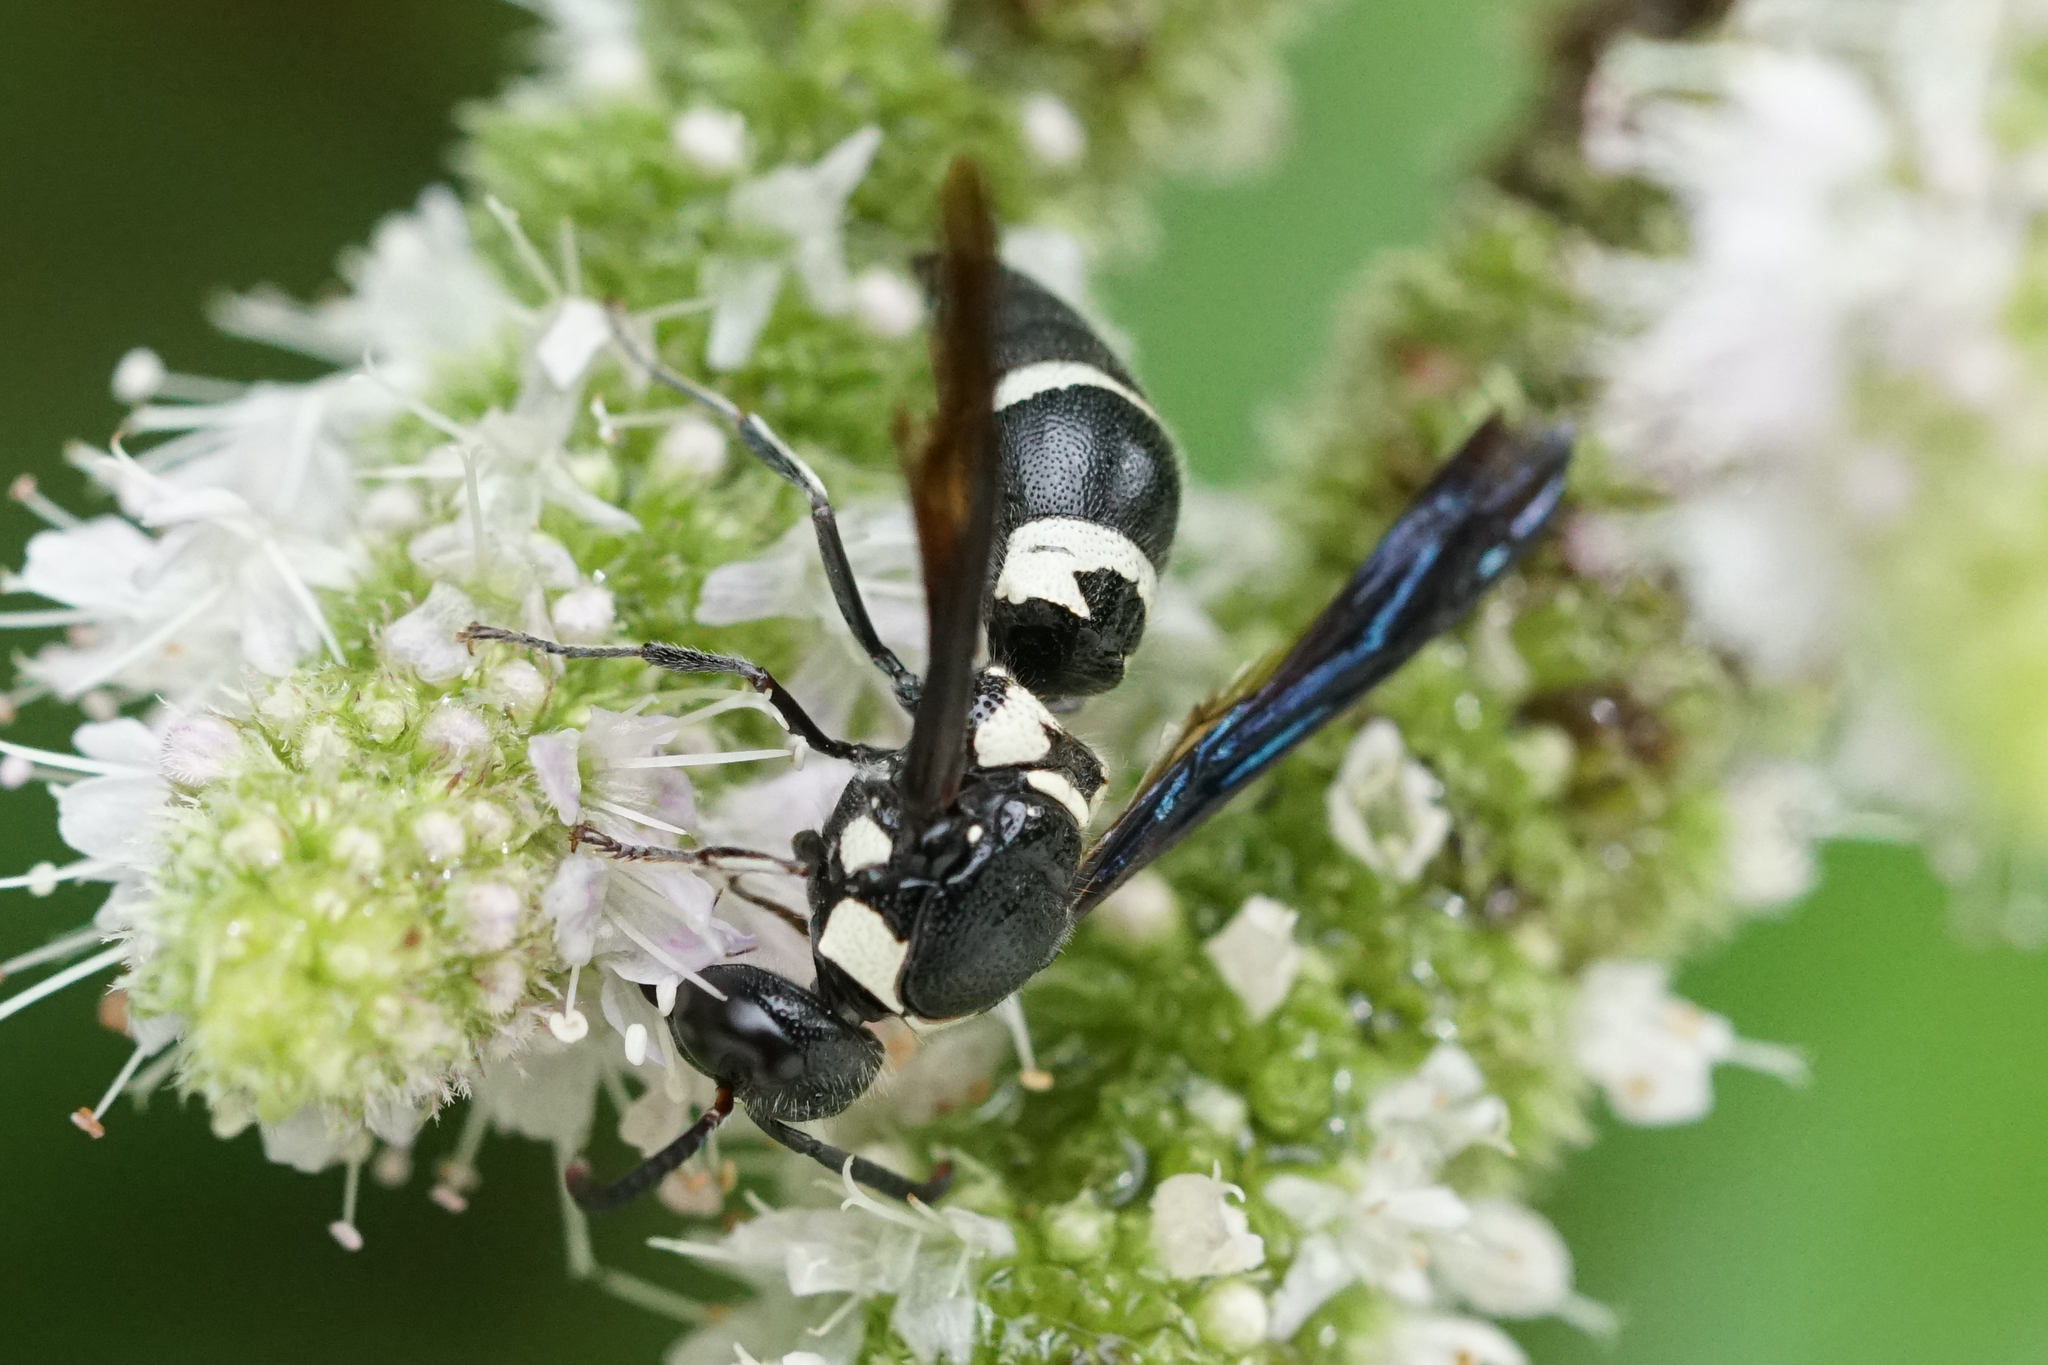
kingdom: Animalia
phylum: Arthropoda
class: Insecta
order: Hymenoptera
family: Eumenidae
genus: Pseudodynerus
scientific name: Pseudodynerus quadrisectus
